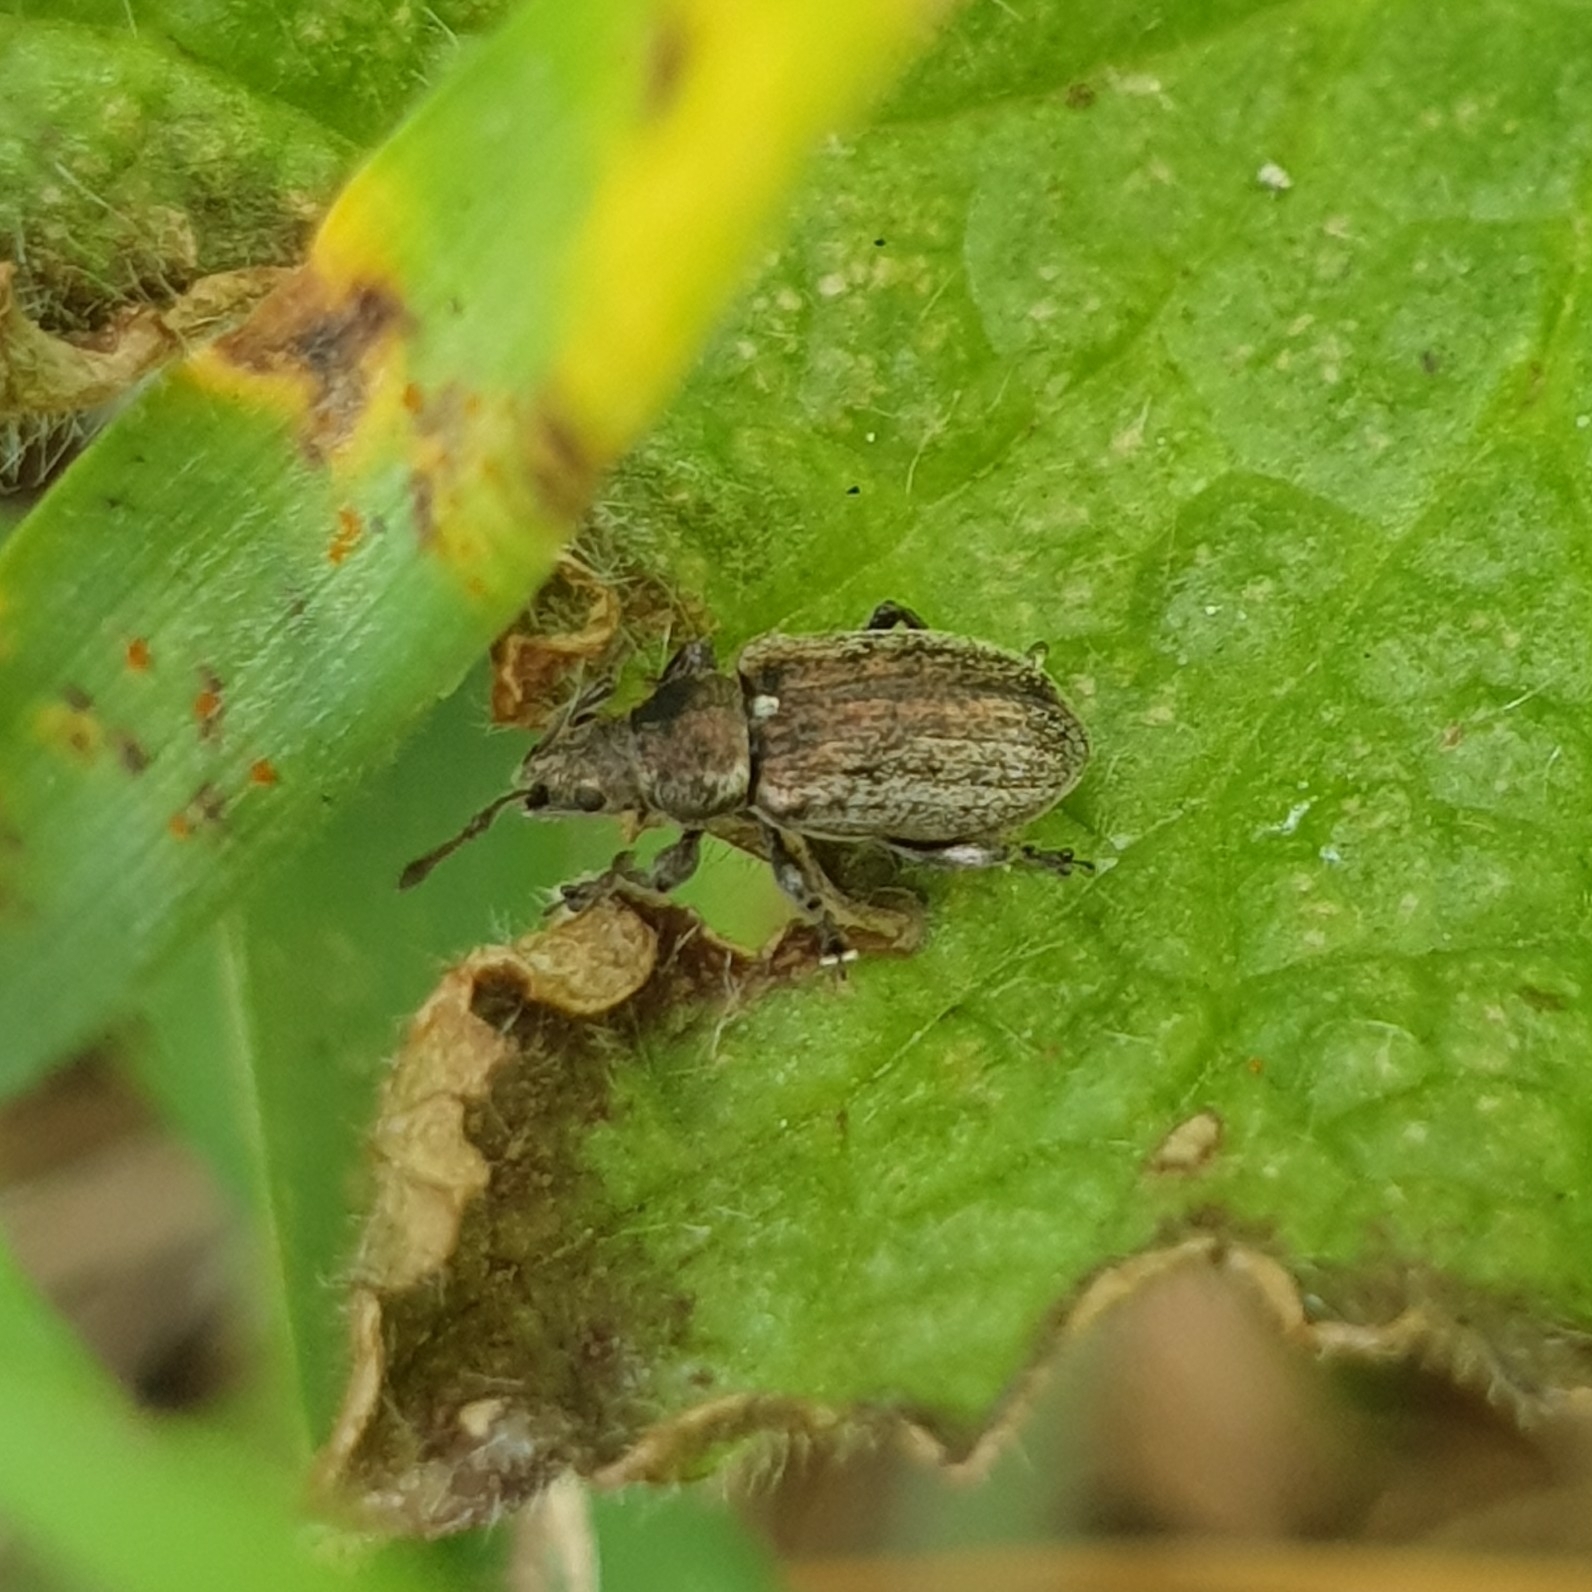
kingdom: Animalia
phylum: Arthropoda
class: Insecta
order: Coleoptera
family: Curculionidae
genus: Phyllobius
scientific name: Phyllobius pyri
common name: Common leaf weevil
